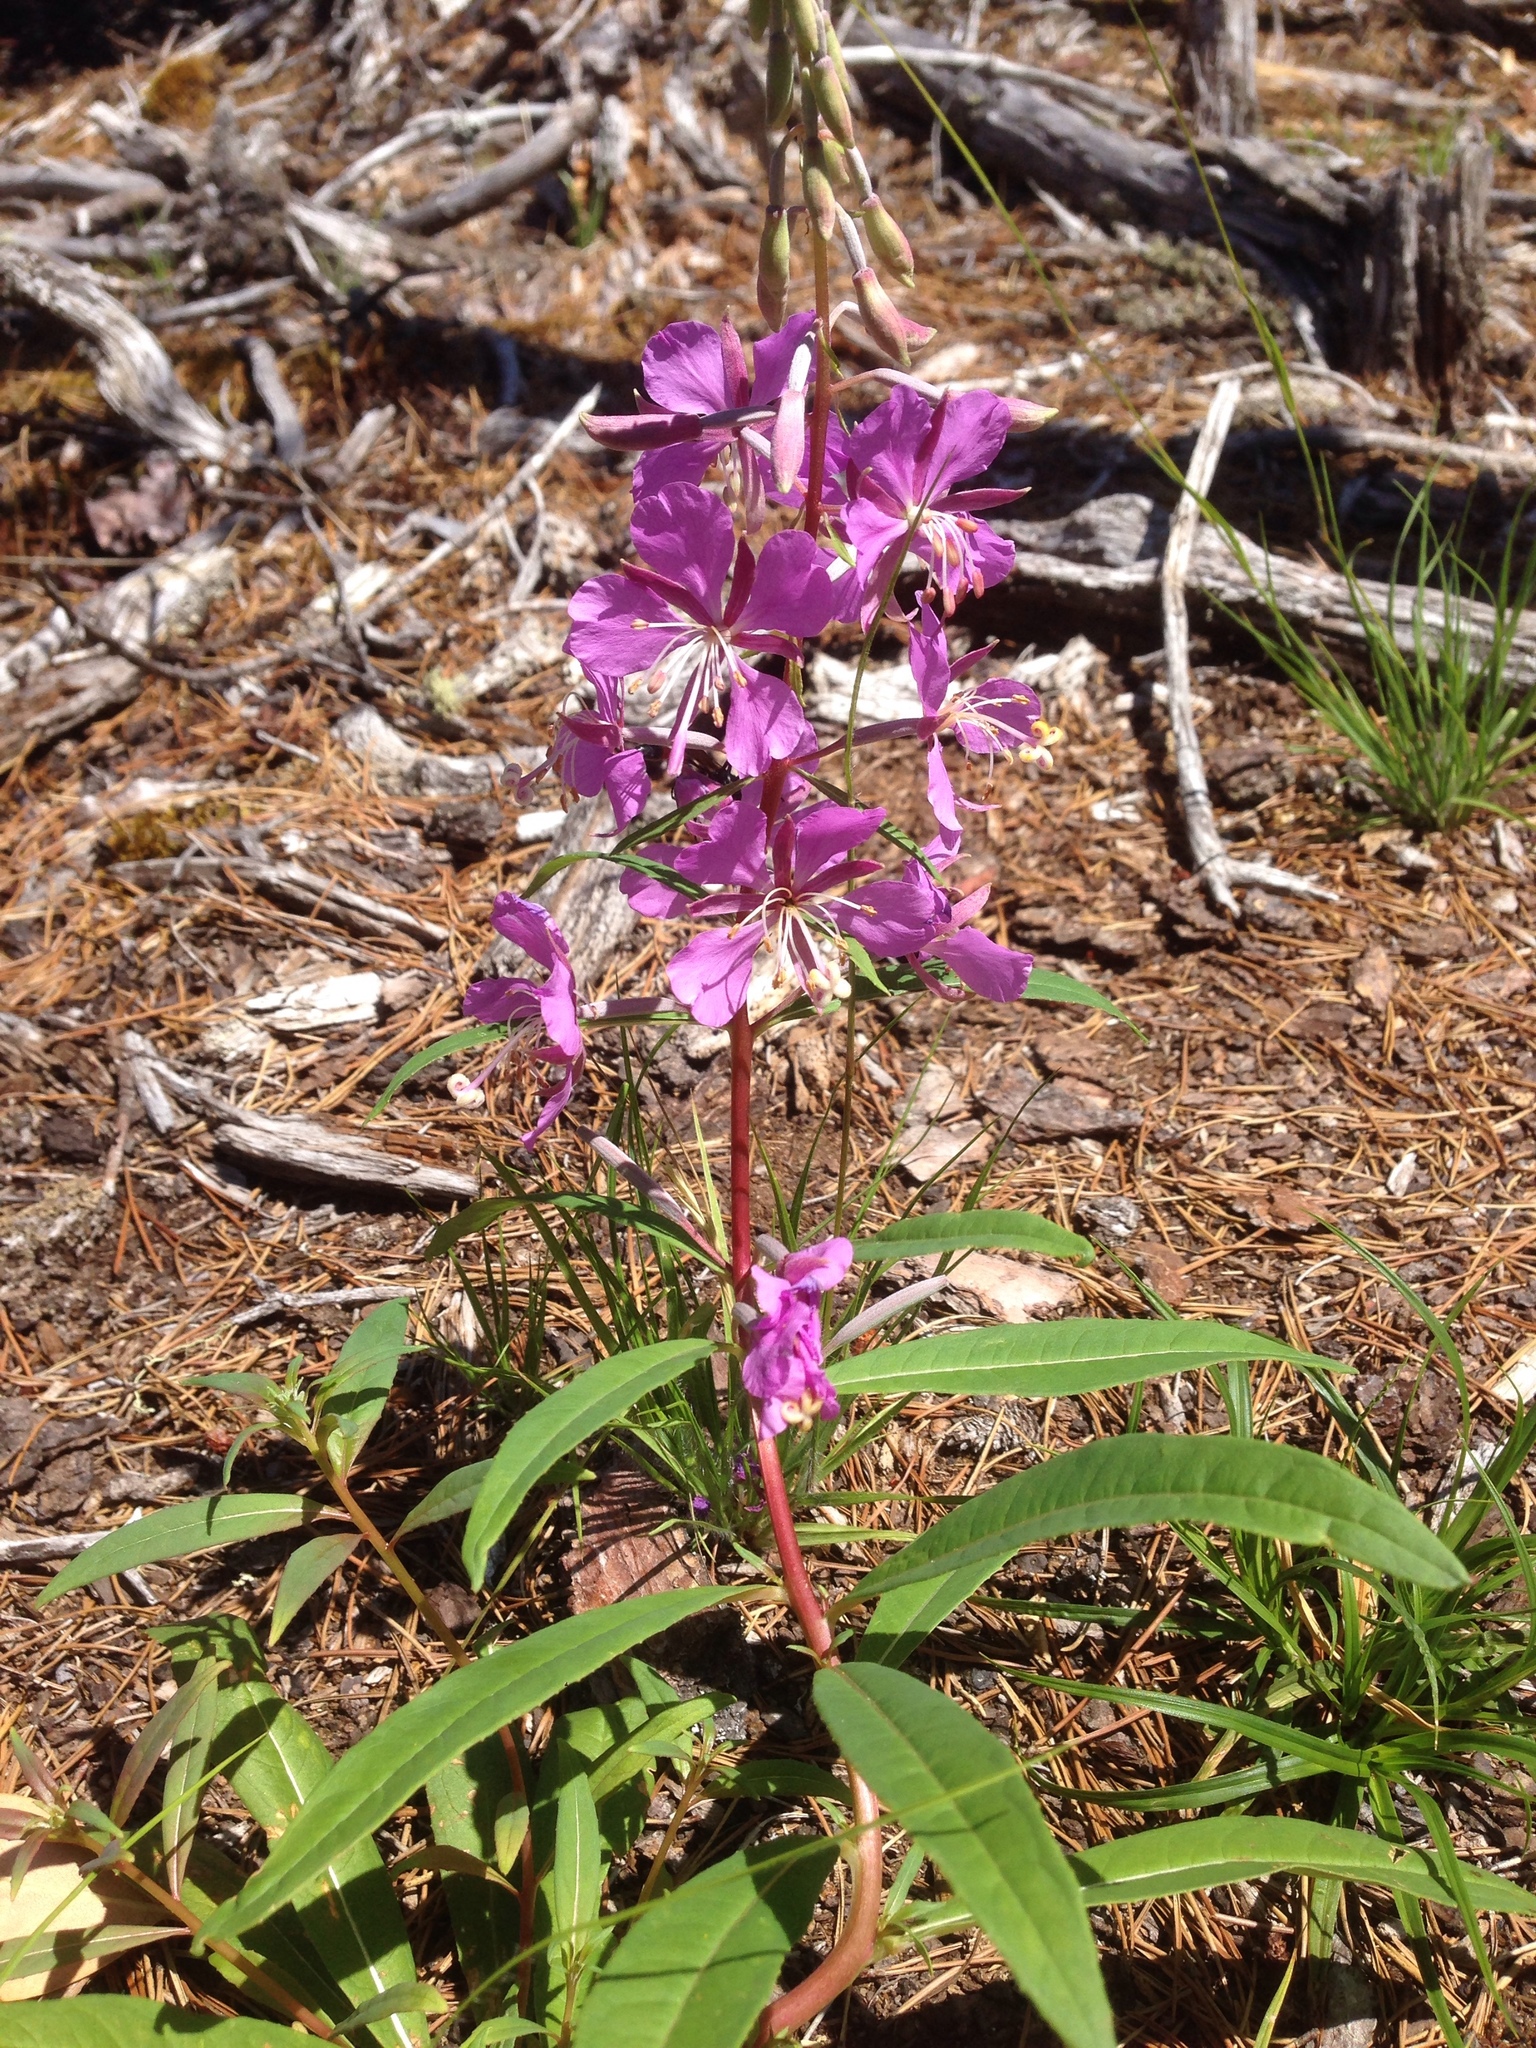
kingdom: Plantae
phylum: Tracheophyta
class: Magnoliopsida
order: Myrtales
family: Onagraceae
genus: Chamaenerion
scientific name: Chamaenerion angustifolium
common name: Fireweed
